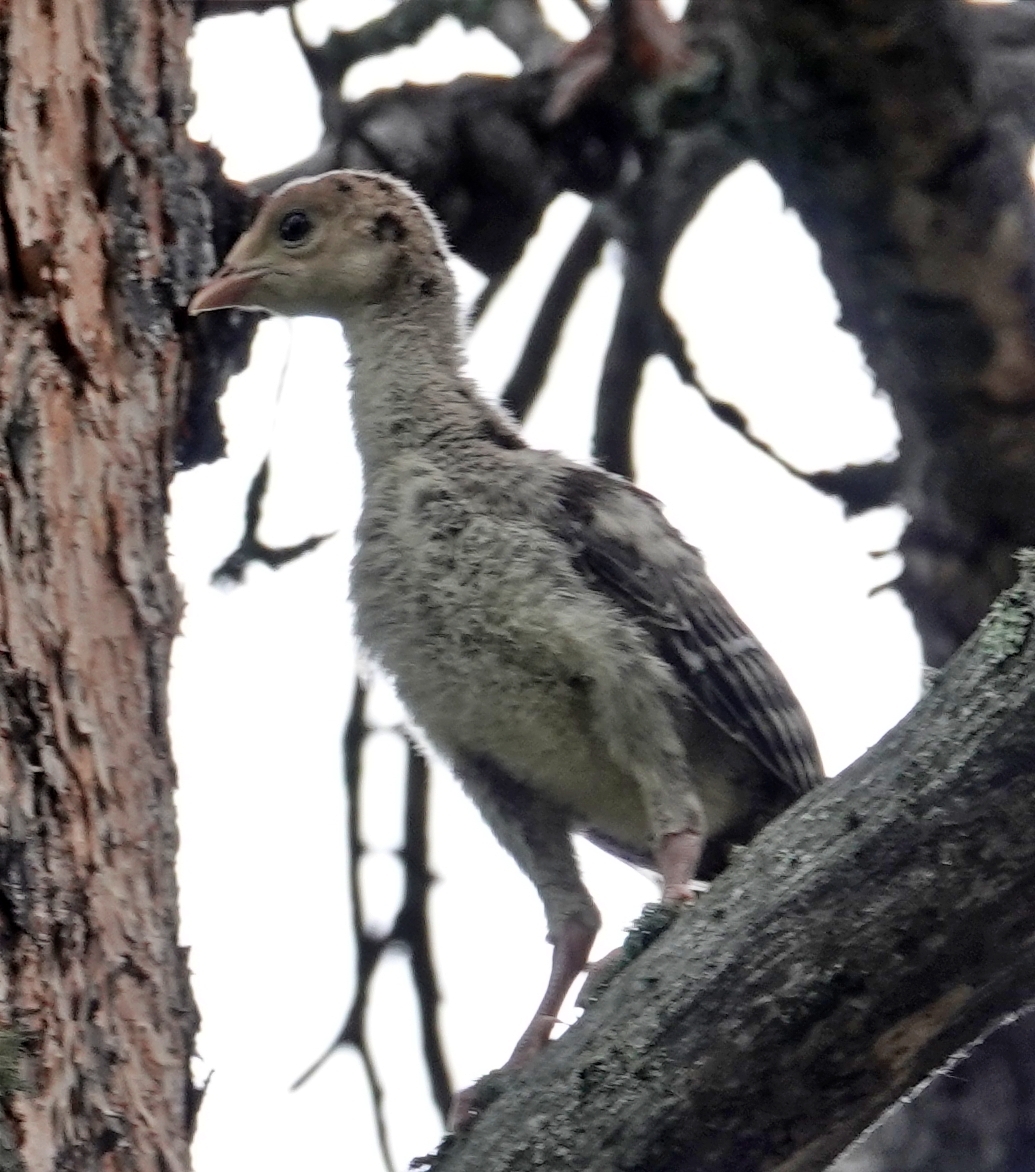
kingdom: Animalia
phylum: Chordata
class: Aves
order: Galliformes
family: Phasianidae
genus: Meleagris
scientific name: Meleagris gallopavo
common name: Wild turkey
